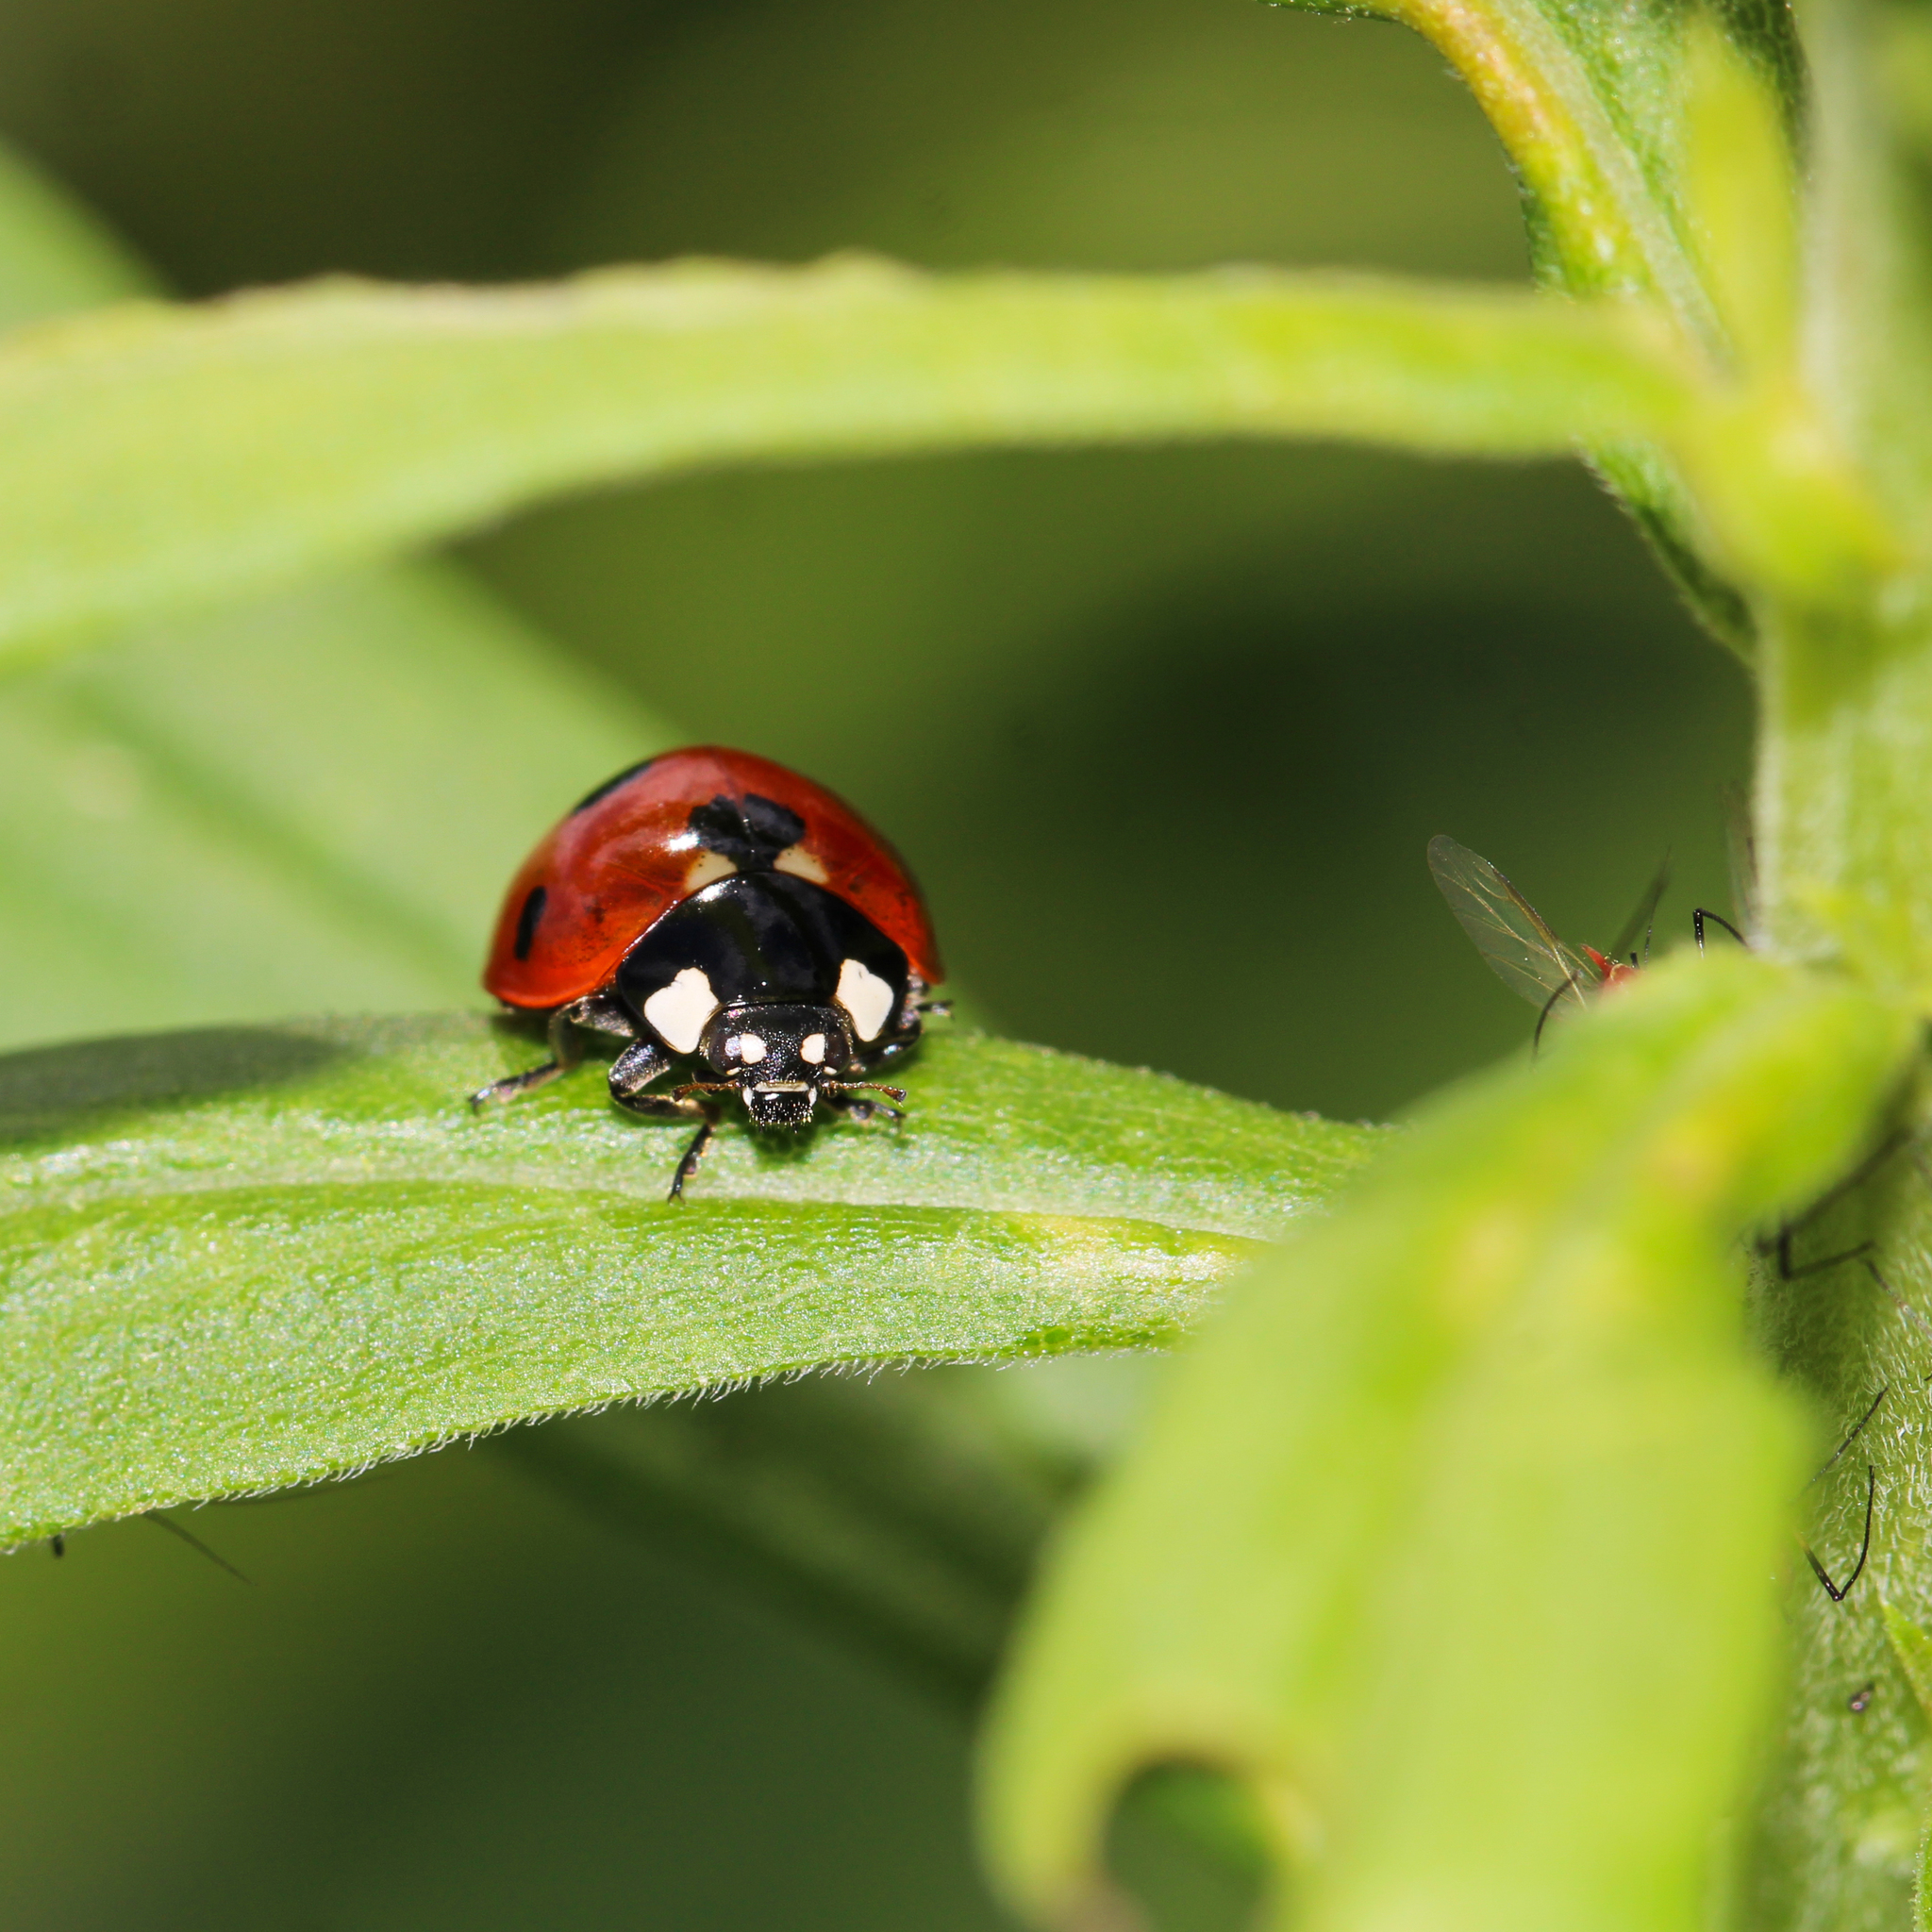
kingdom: Animalia
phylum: Arthropoda
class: Insecta
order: Coleoptera
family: Coccinellidae
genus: Coccinella
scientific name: Coccinella septempunctata
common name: Sevenspotted lady beetle
